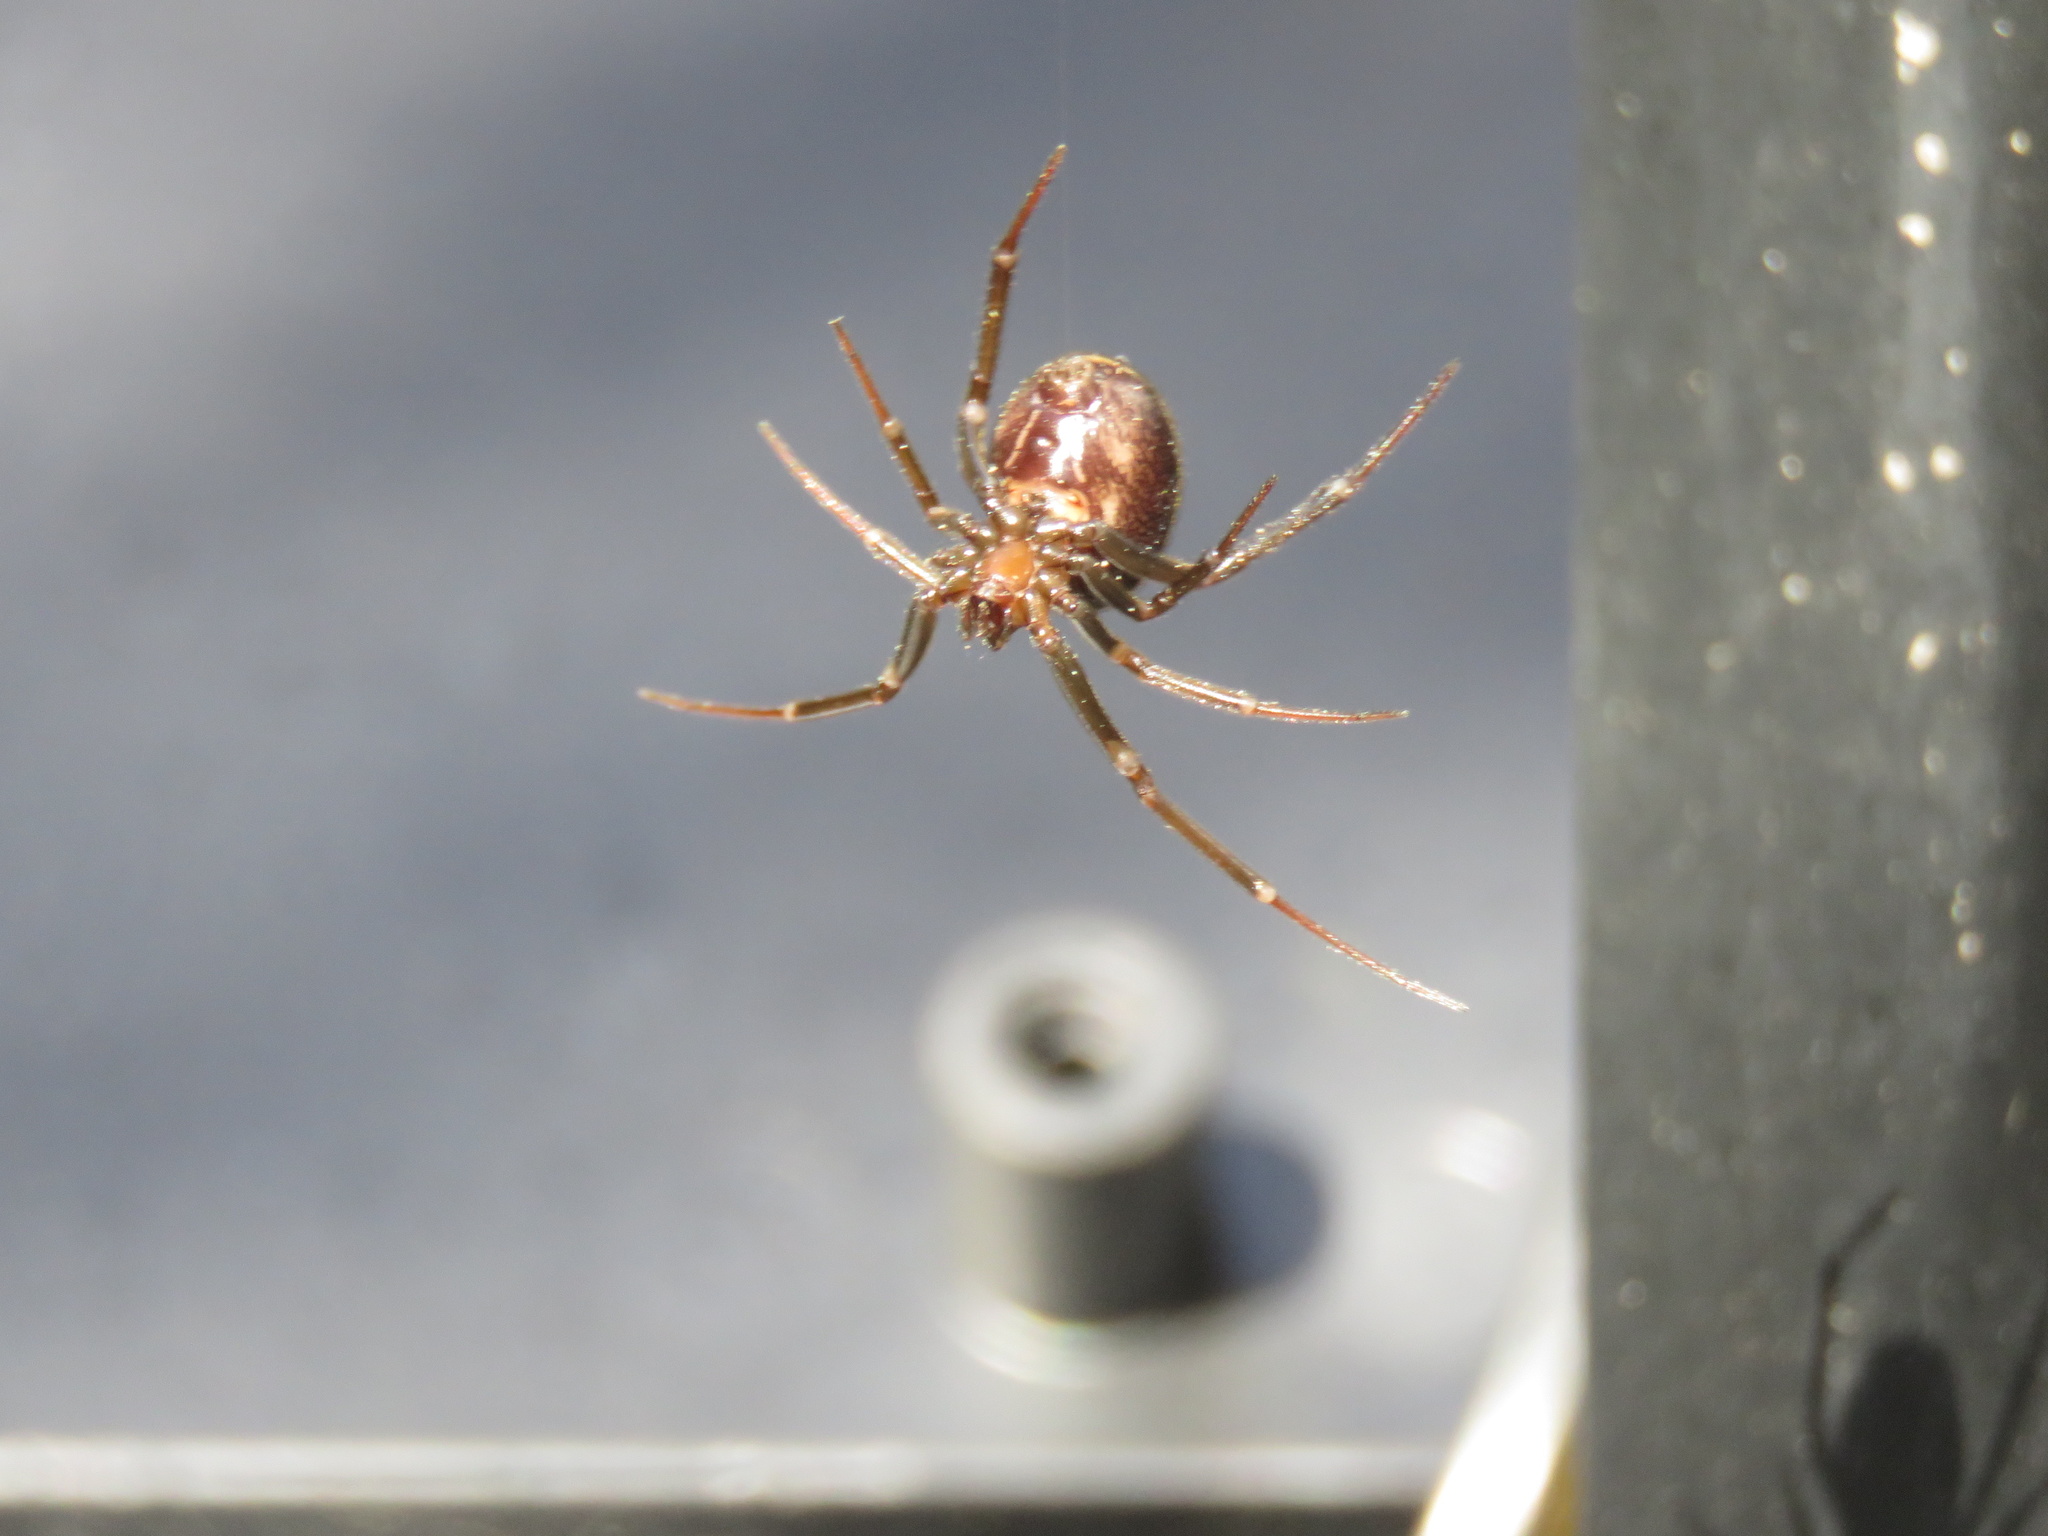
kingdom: Animalia
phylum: Arthropoda
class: Arachnida
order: Araneae
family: Theridiidae
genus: Steatoda
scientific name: Steatoda grossa
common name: False black widow
